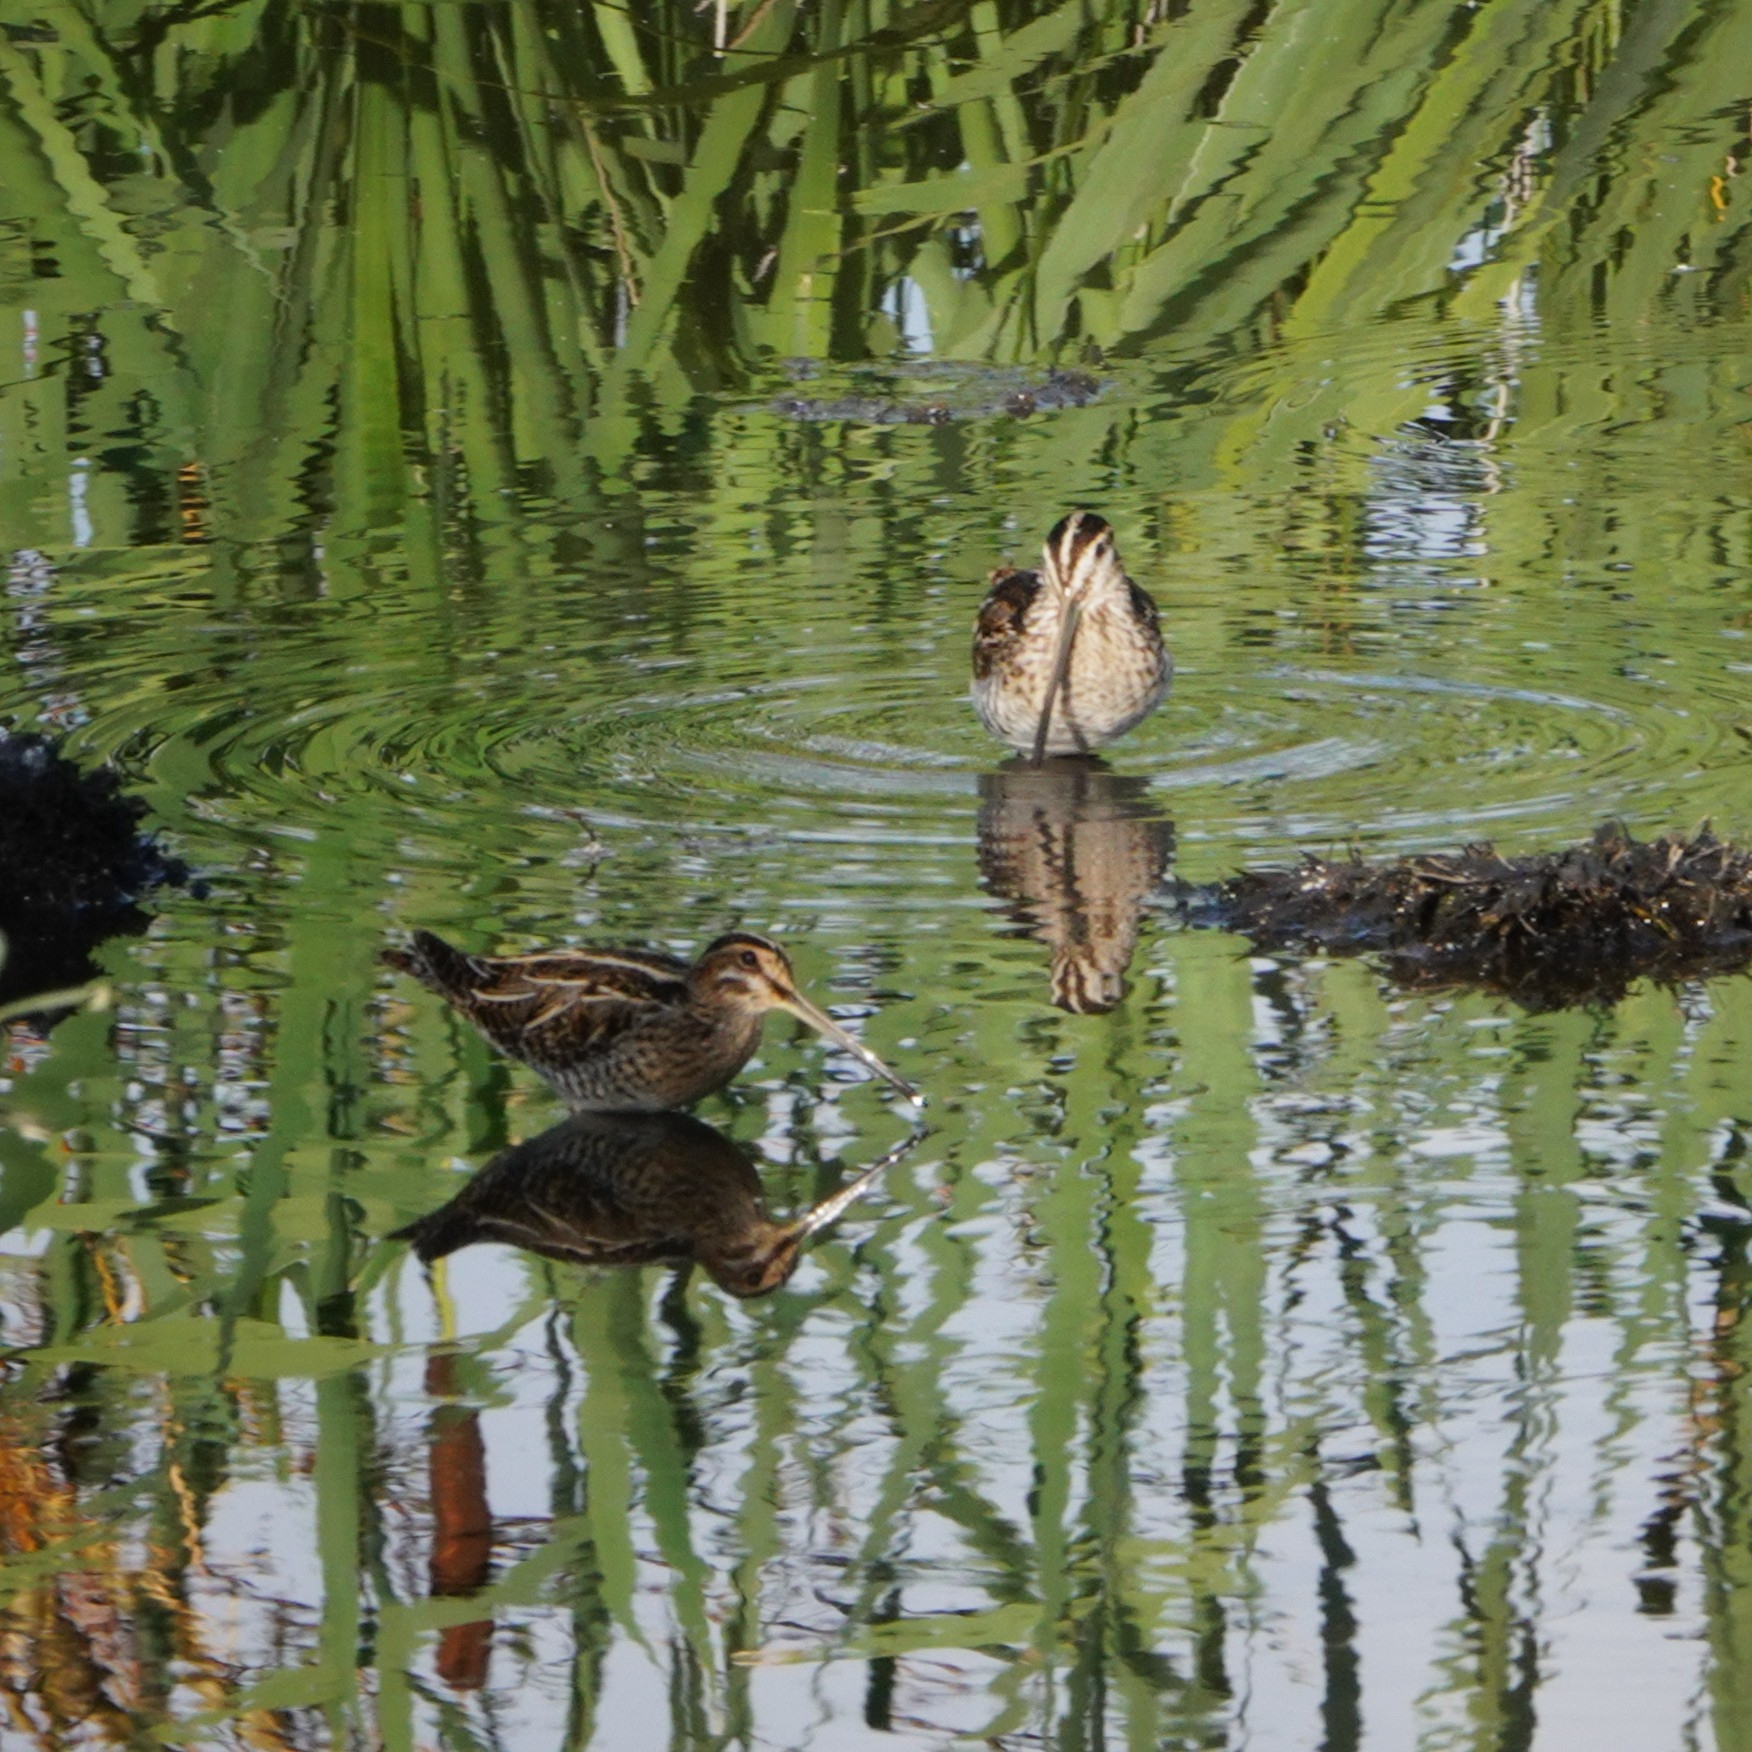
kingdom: Animalia
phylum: Chordata
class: Aves
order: Charadriiformes
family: Scolopacidae
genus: Gallinago
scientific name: Gallinago gallinago
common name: Common snipe
